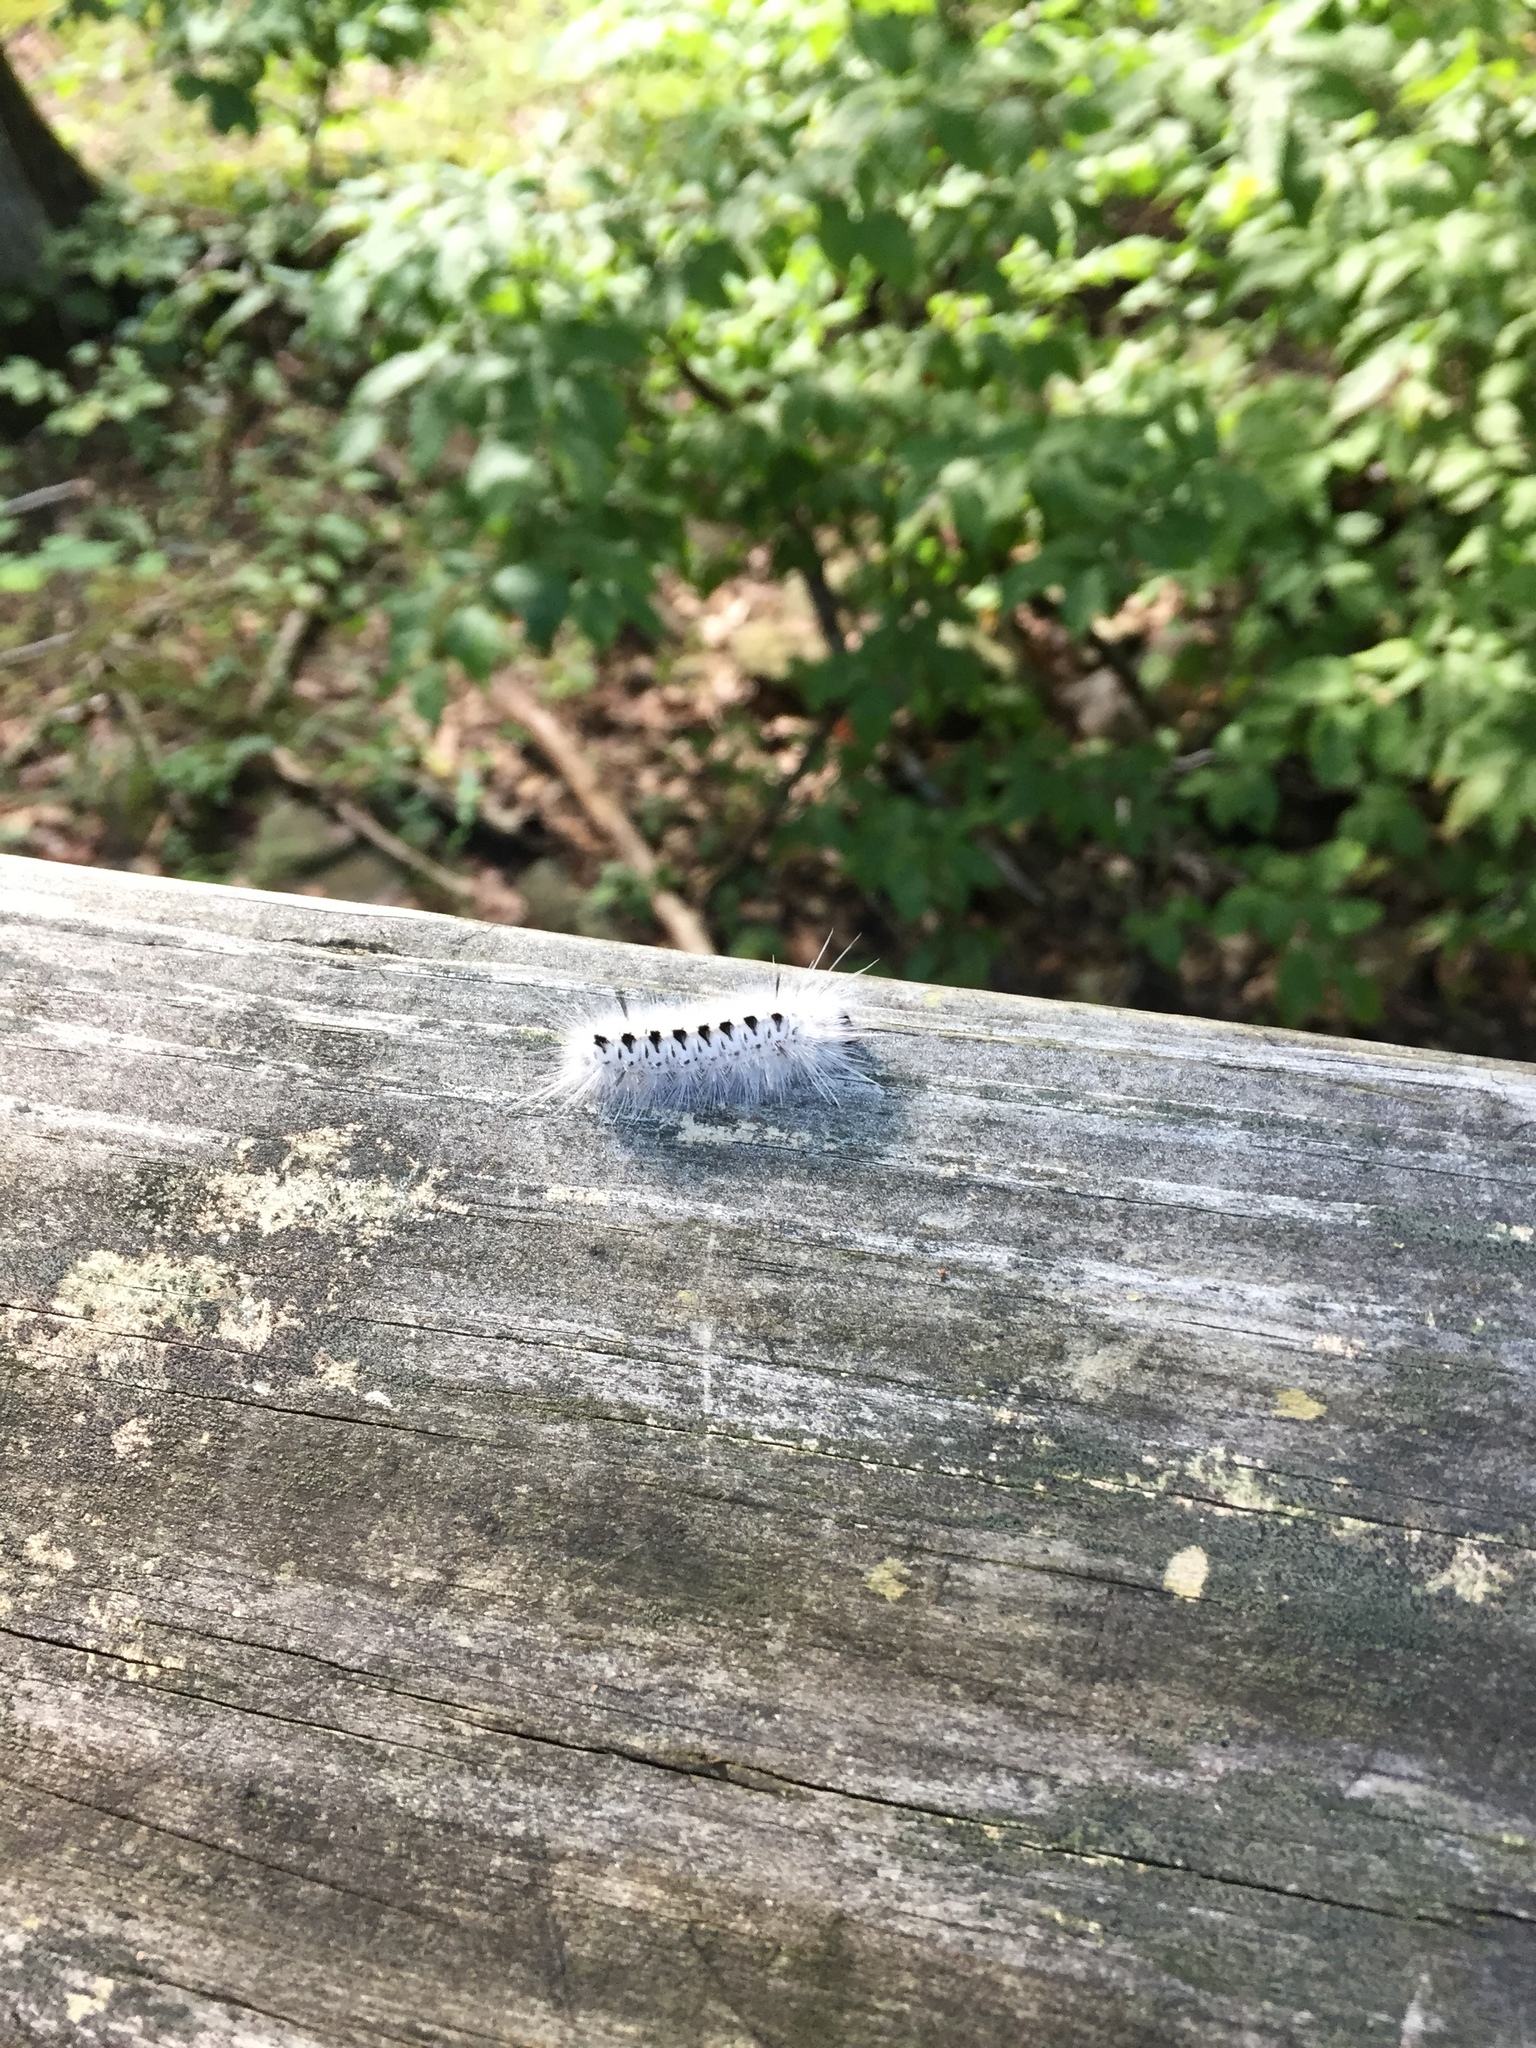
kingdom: Animalia
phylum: Arthropoda
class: Insecta
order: Lepidoptera
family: Erebidae
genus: Lophocampa
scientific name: Lophocampa caryae
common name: Hickory tussock moth
